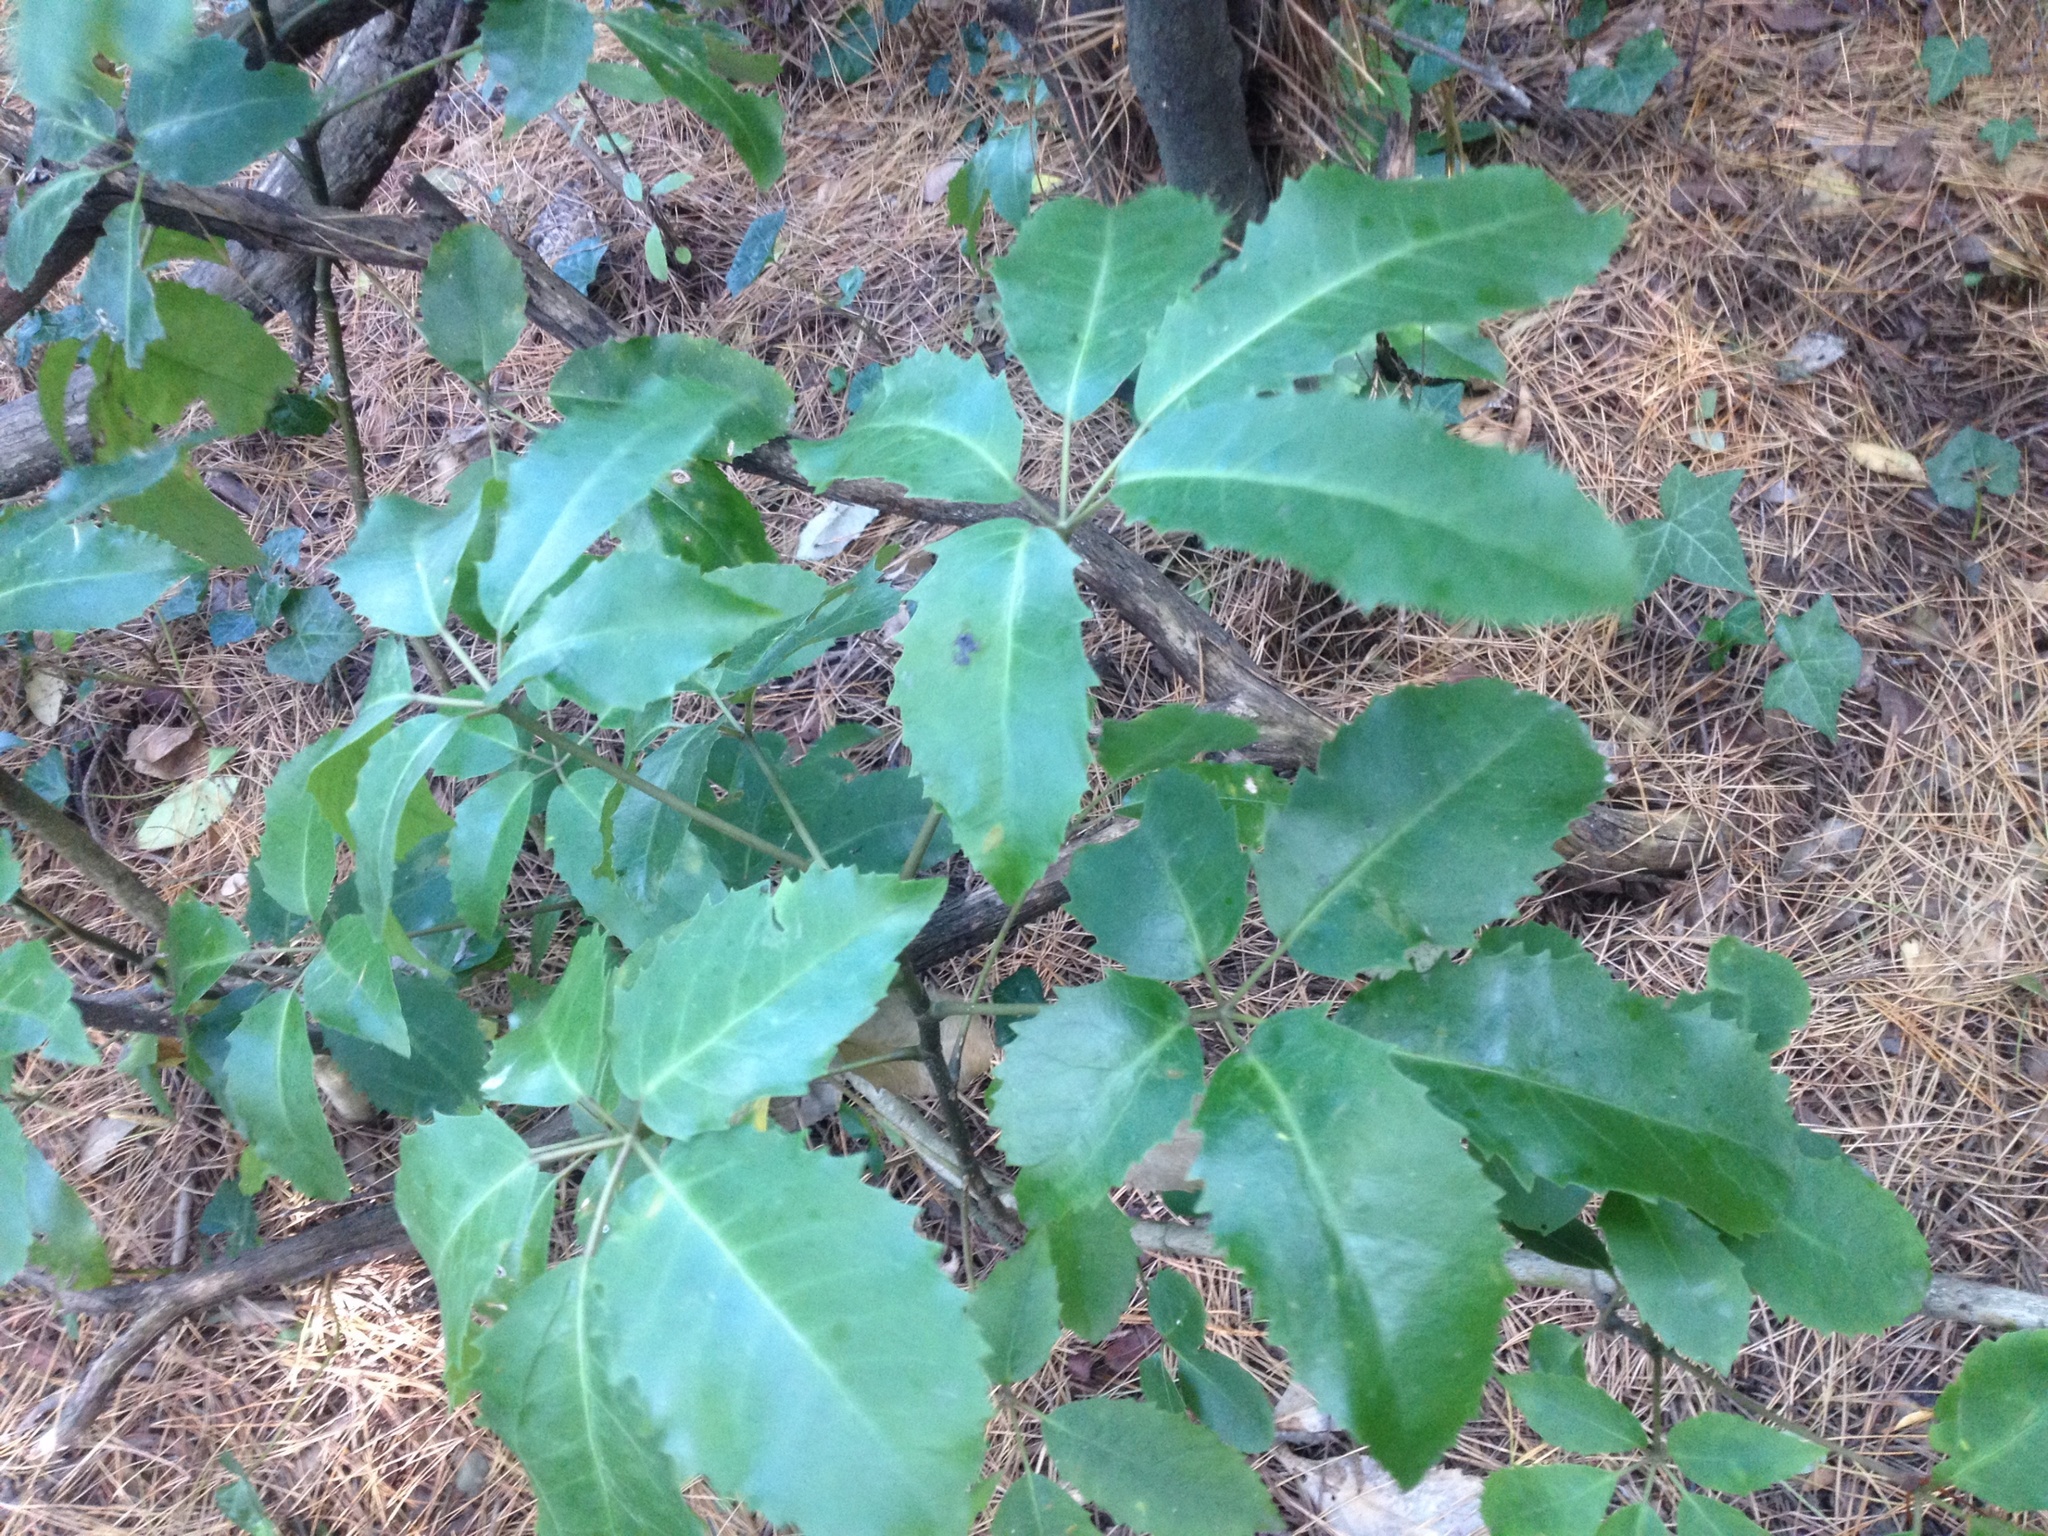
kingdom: Plantae
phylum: Tracheophyta
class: Magnoliopsida
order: Apiales
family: Araliaceae
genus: Neopanax
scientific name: Neopanax arboreus
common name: Five-fingers
